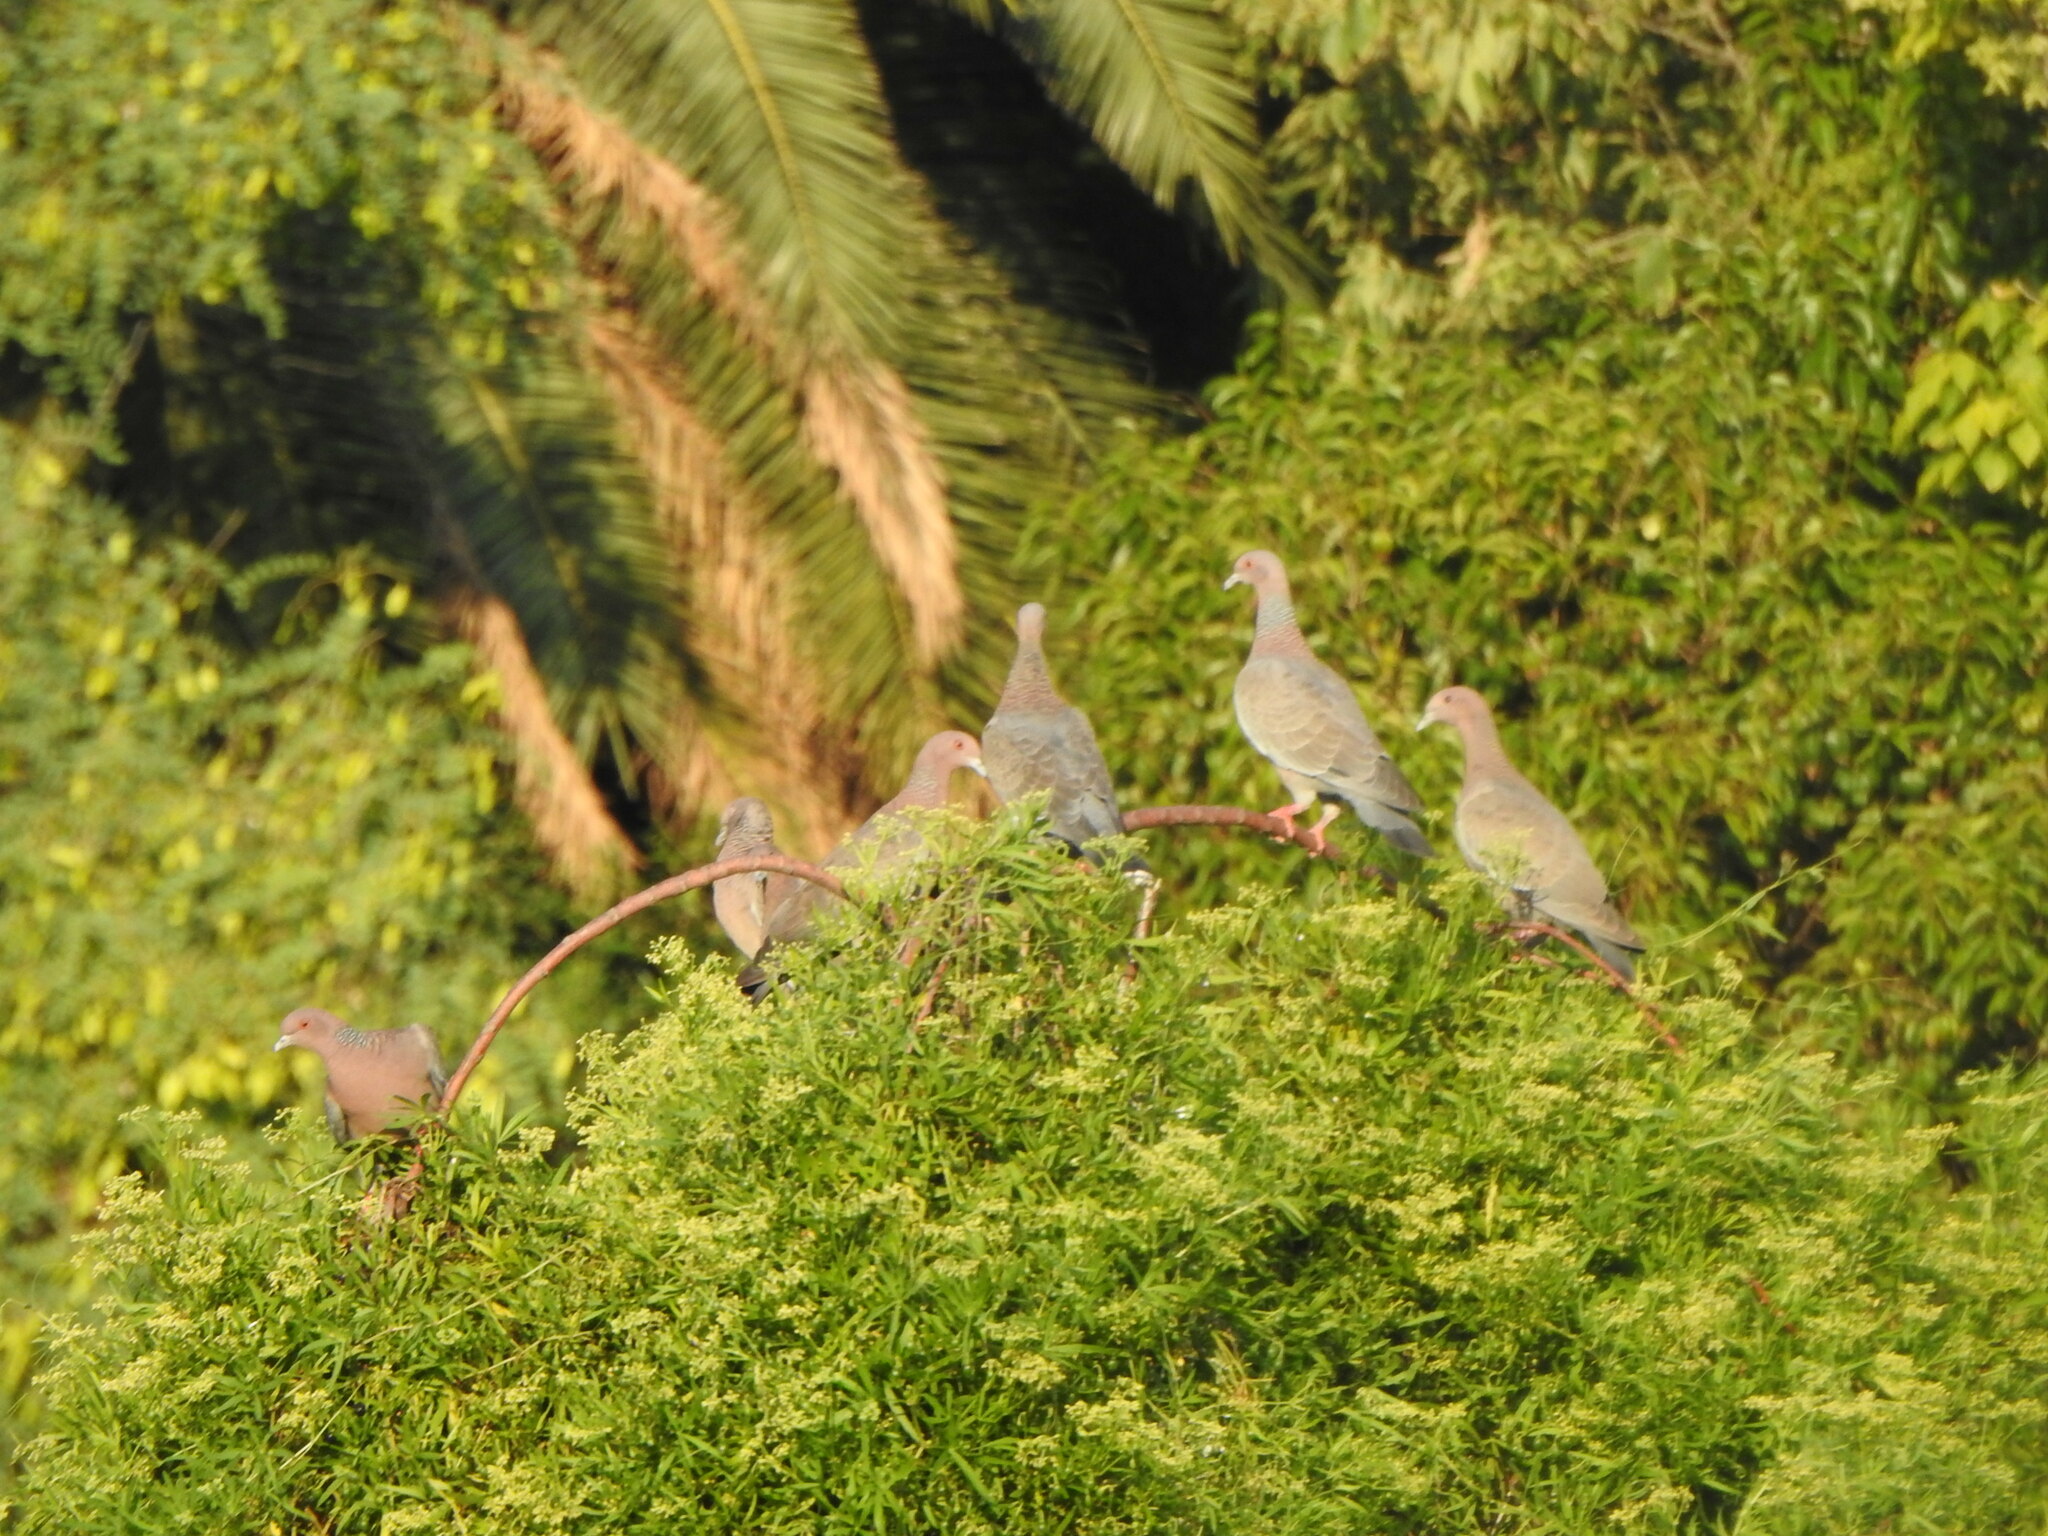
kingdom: Animalia
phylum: Chordata
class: Aves
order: Columbiformes
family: Columbidae
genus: Patagioenas
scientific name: Patagioenas picazuro
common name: Picazuro pigeon
